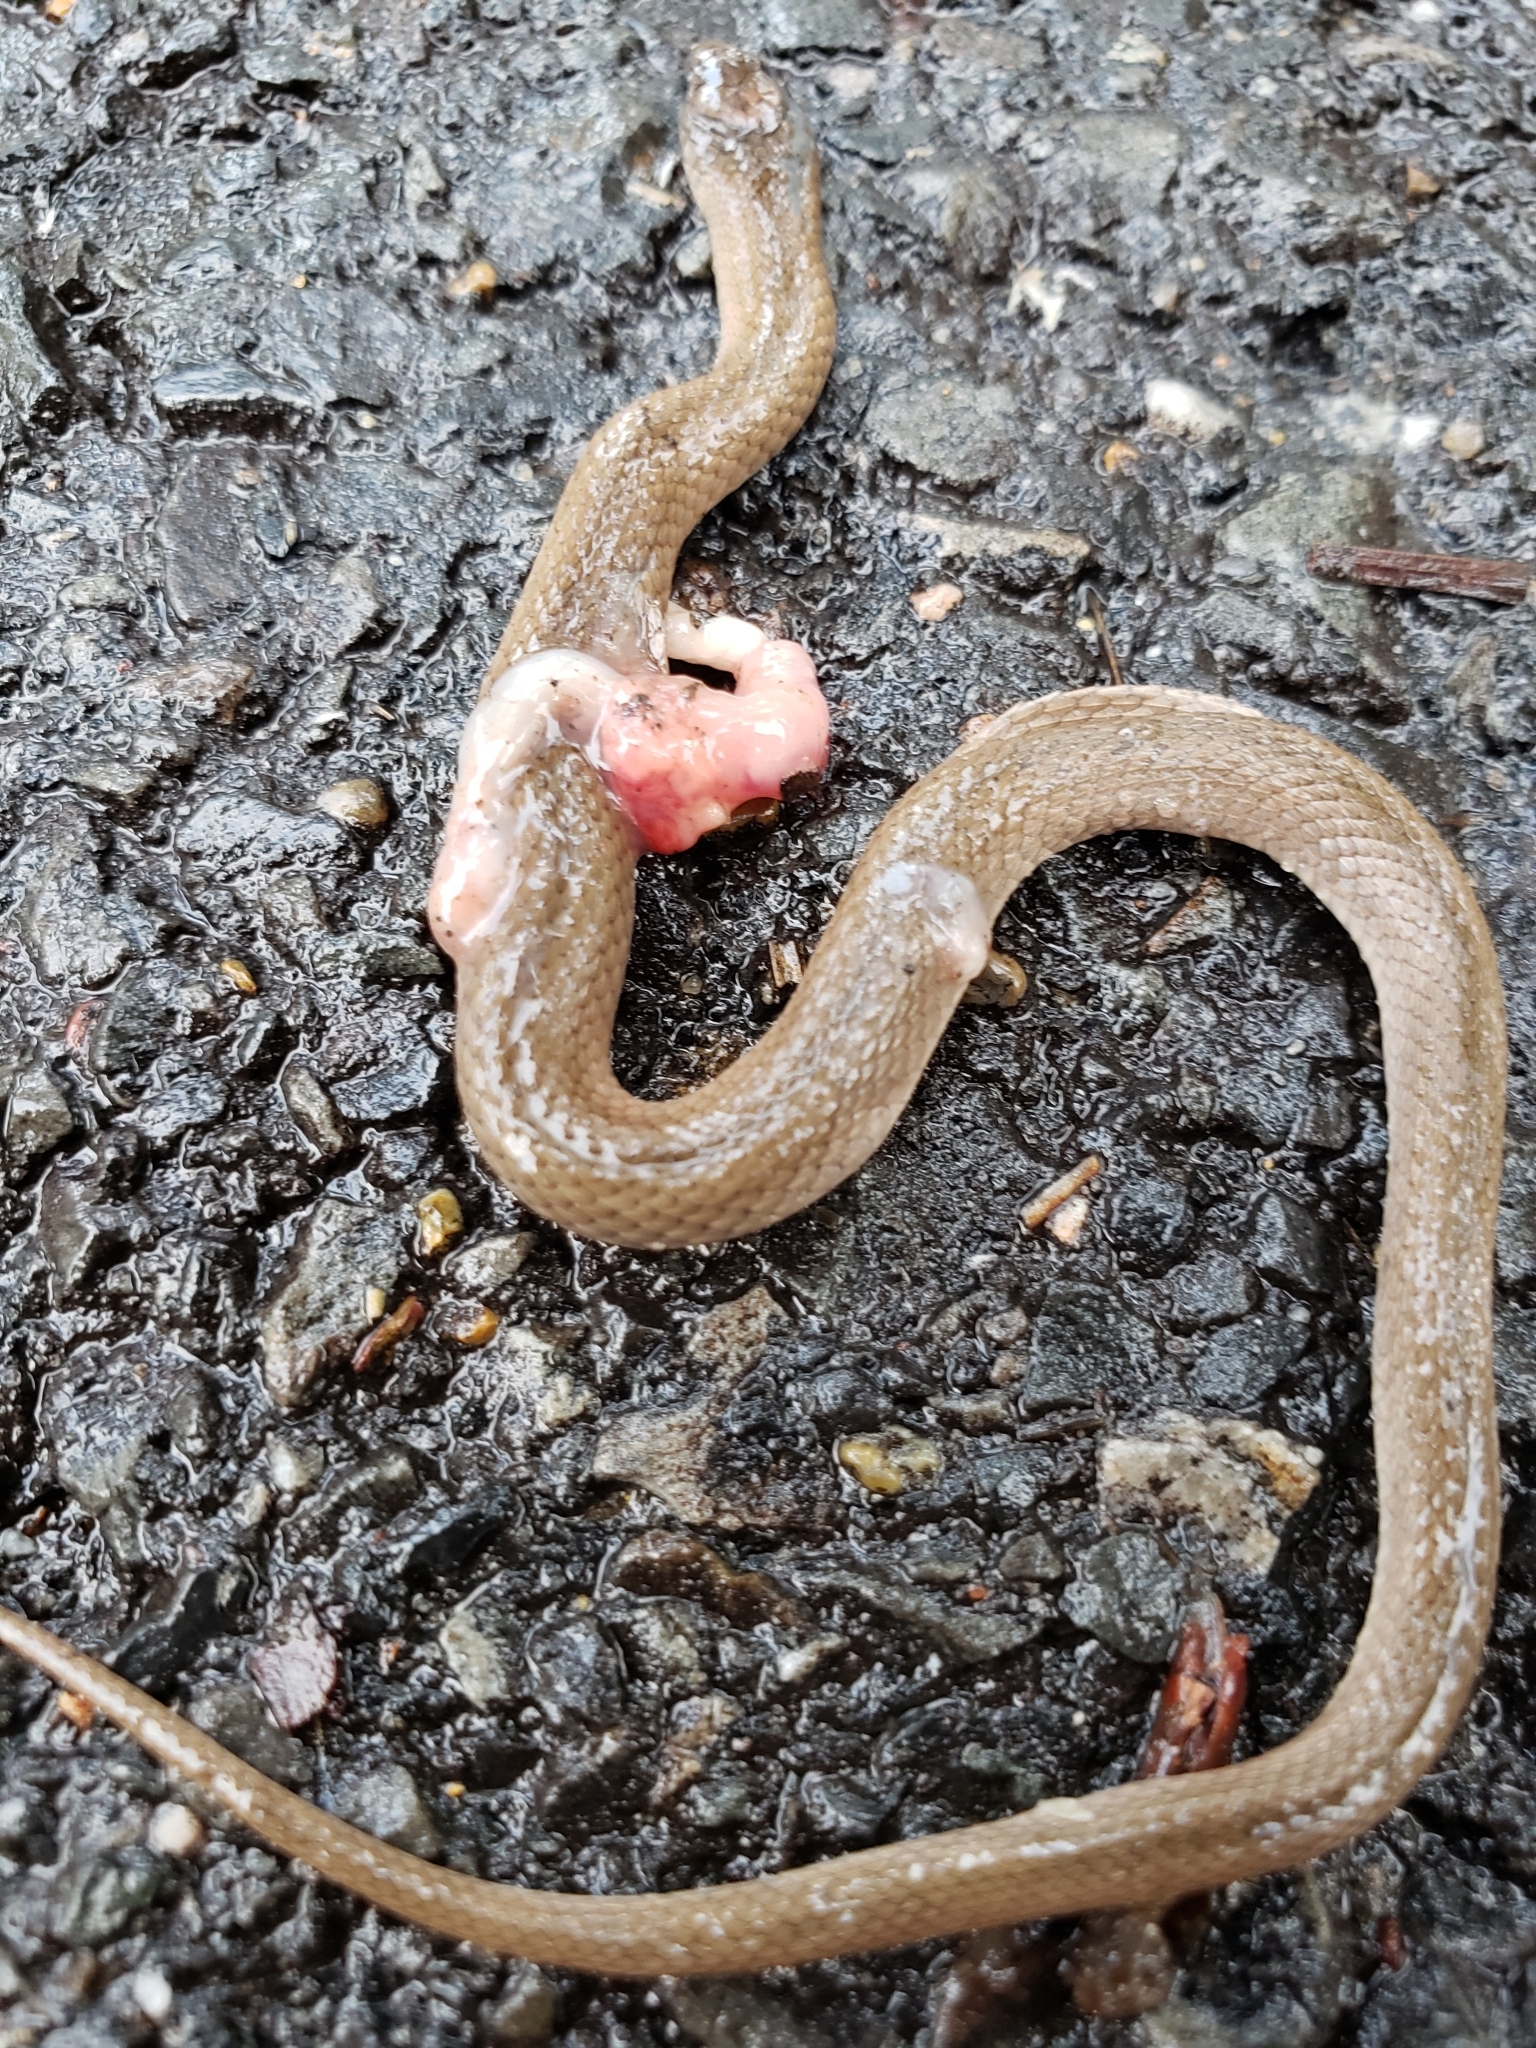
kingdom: Animalia
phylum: Chordata
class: Squamata
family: Colubridae
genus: Haldea
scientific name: Haldea striatula
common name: Rough earth snake
